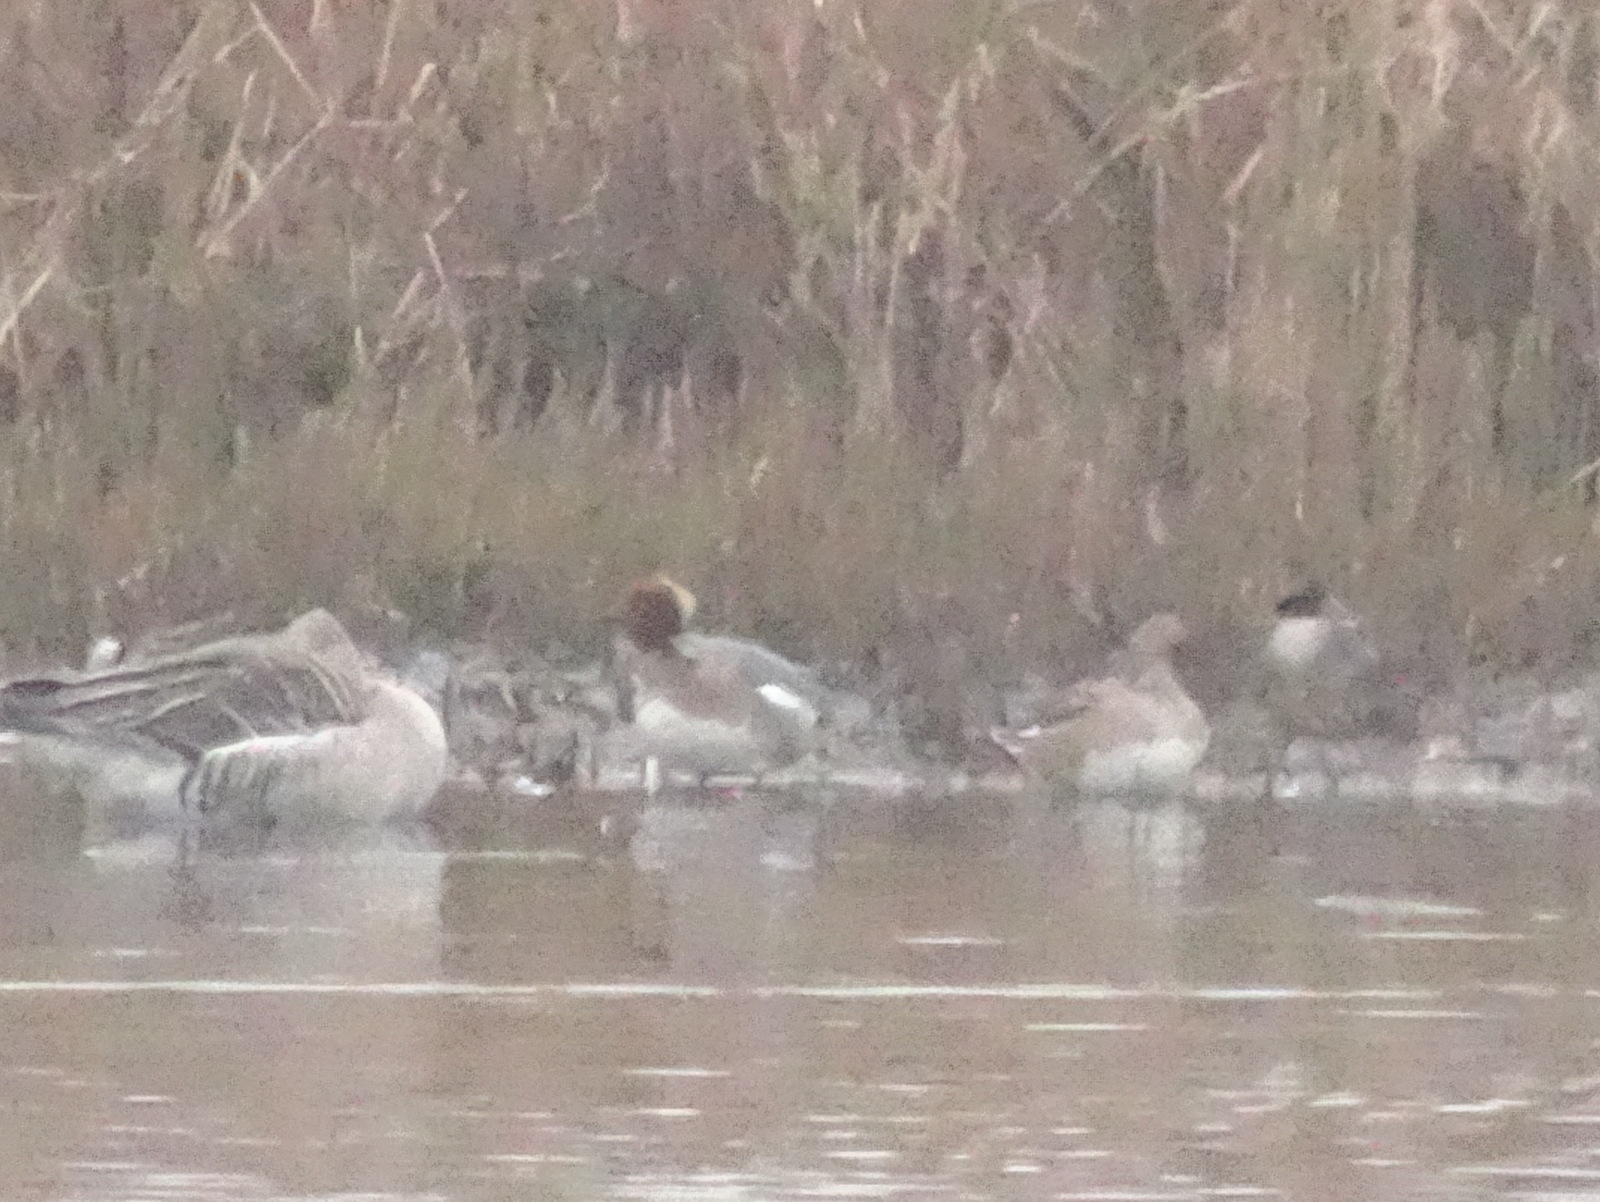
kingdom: Animalia
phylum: Chordata
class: Aves
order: Anseriformes
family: Anatidae
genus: Mareca
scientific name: Mareca penelope
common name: Eurasian wigeon
